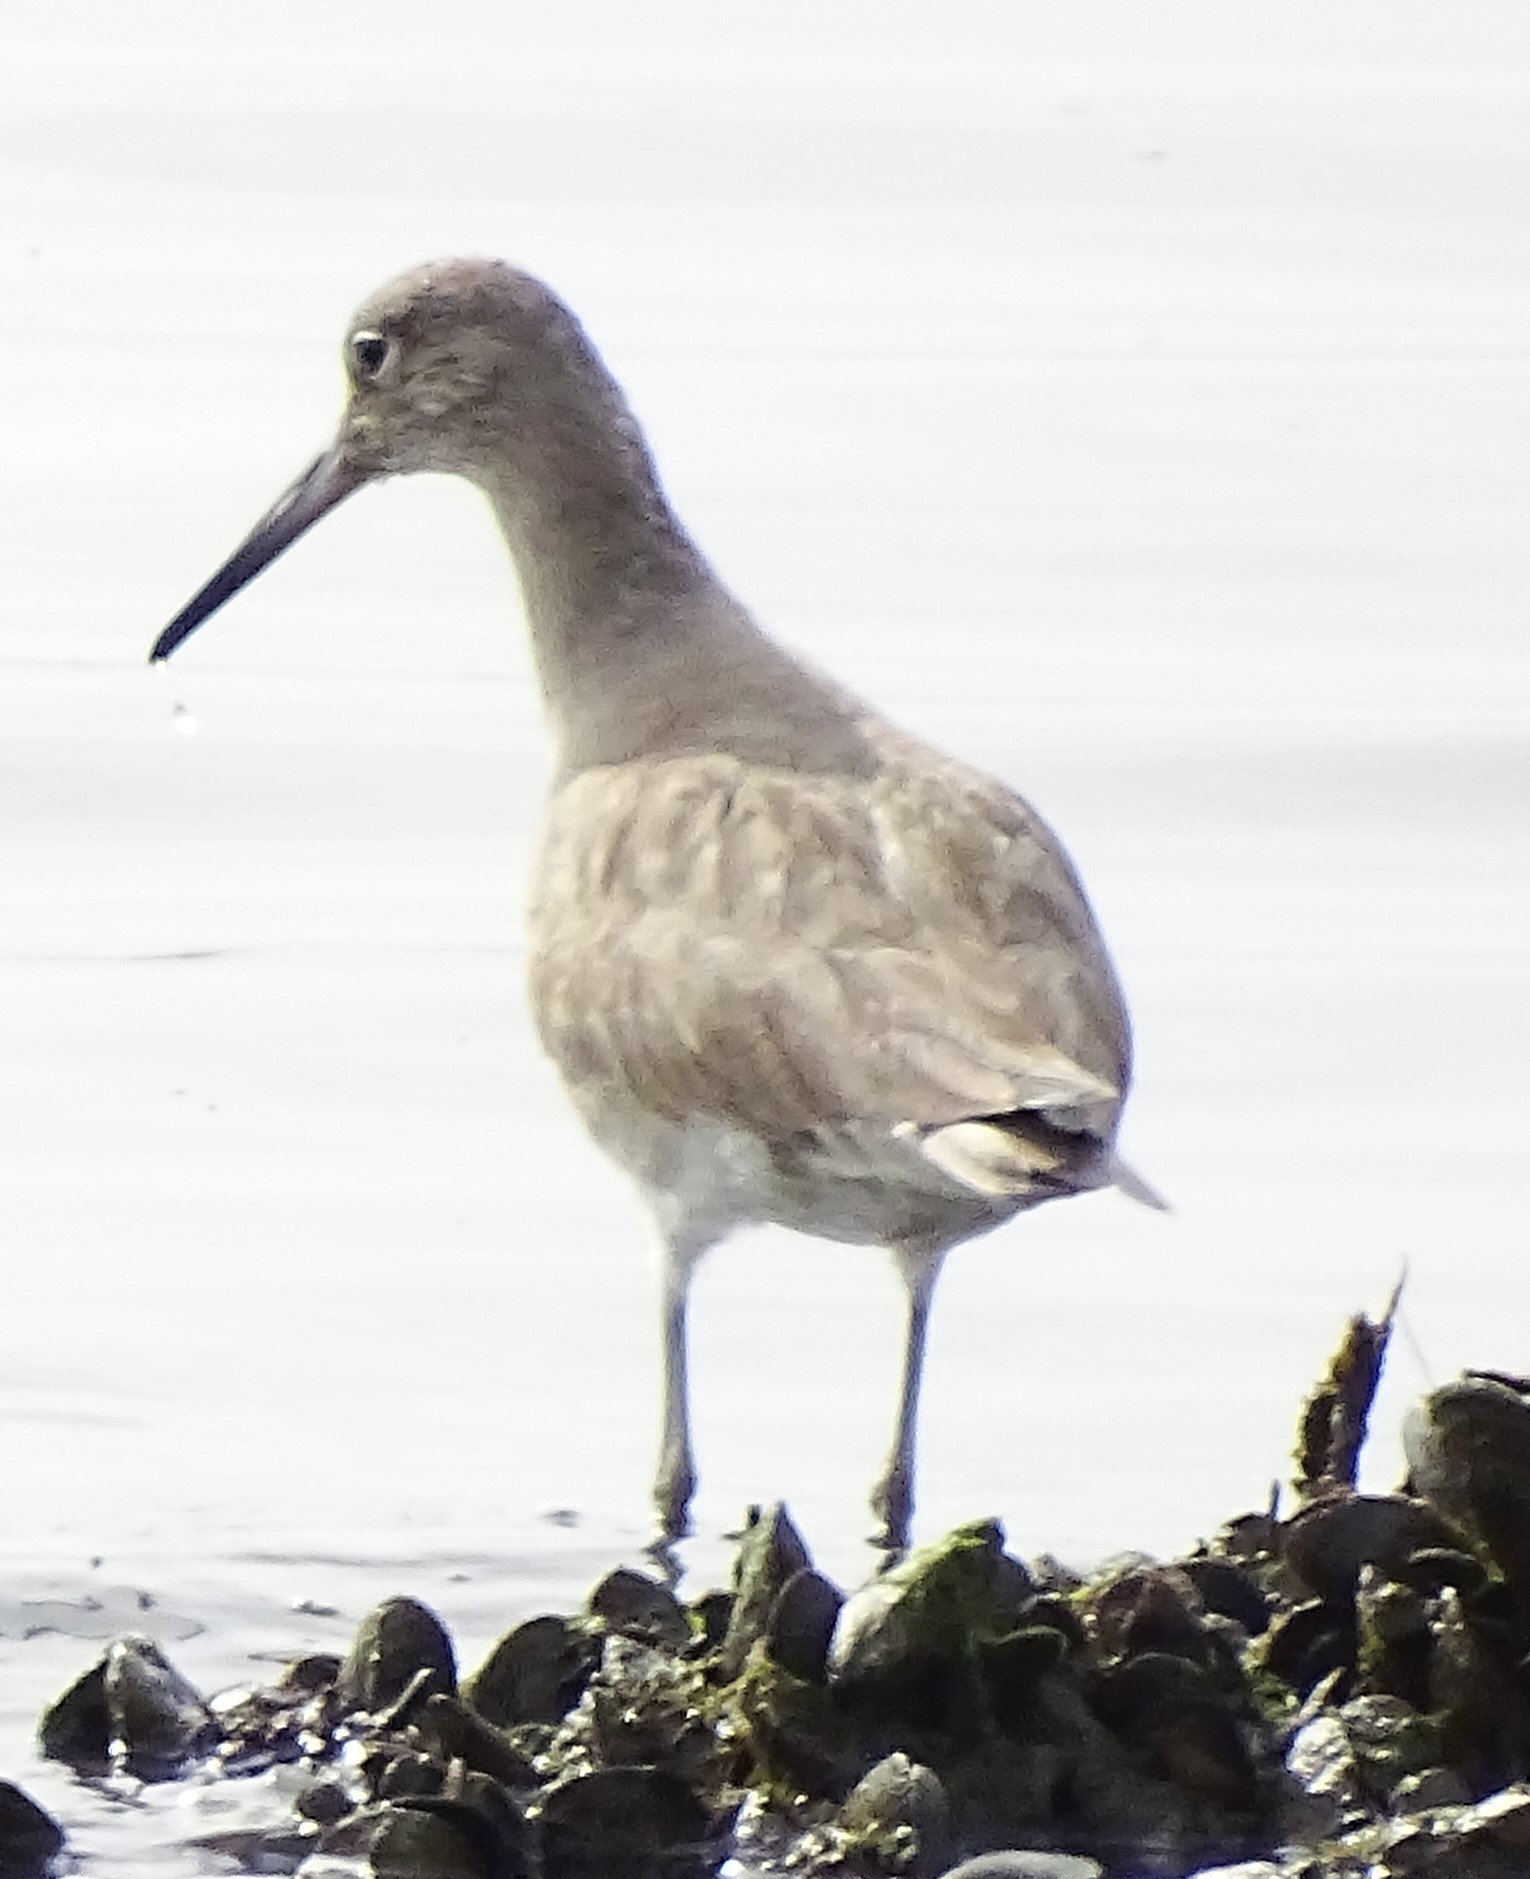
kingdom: Animalia
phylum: Chordata
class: Aves
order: Charadriiformes
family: Scolopacidae
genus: Tringa
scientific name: Tringa semipalmata
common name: Willet
